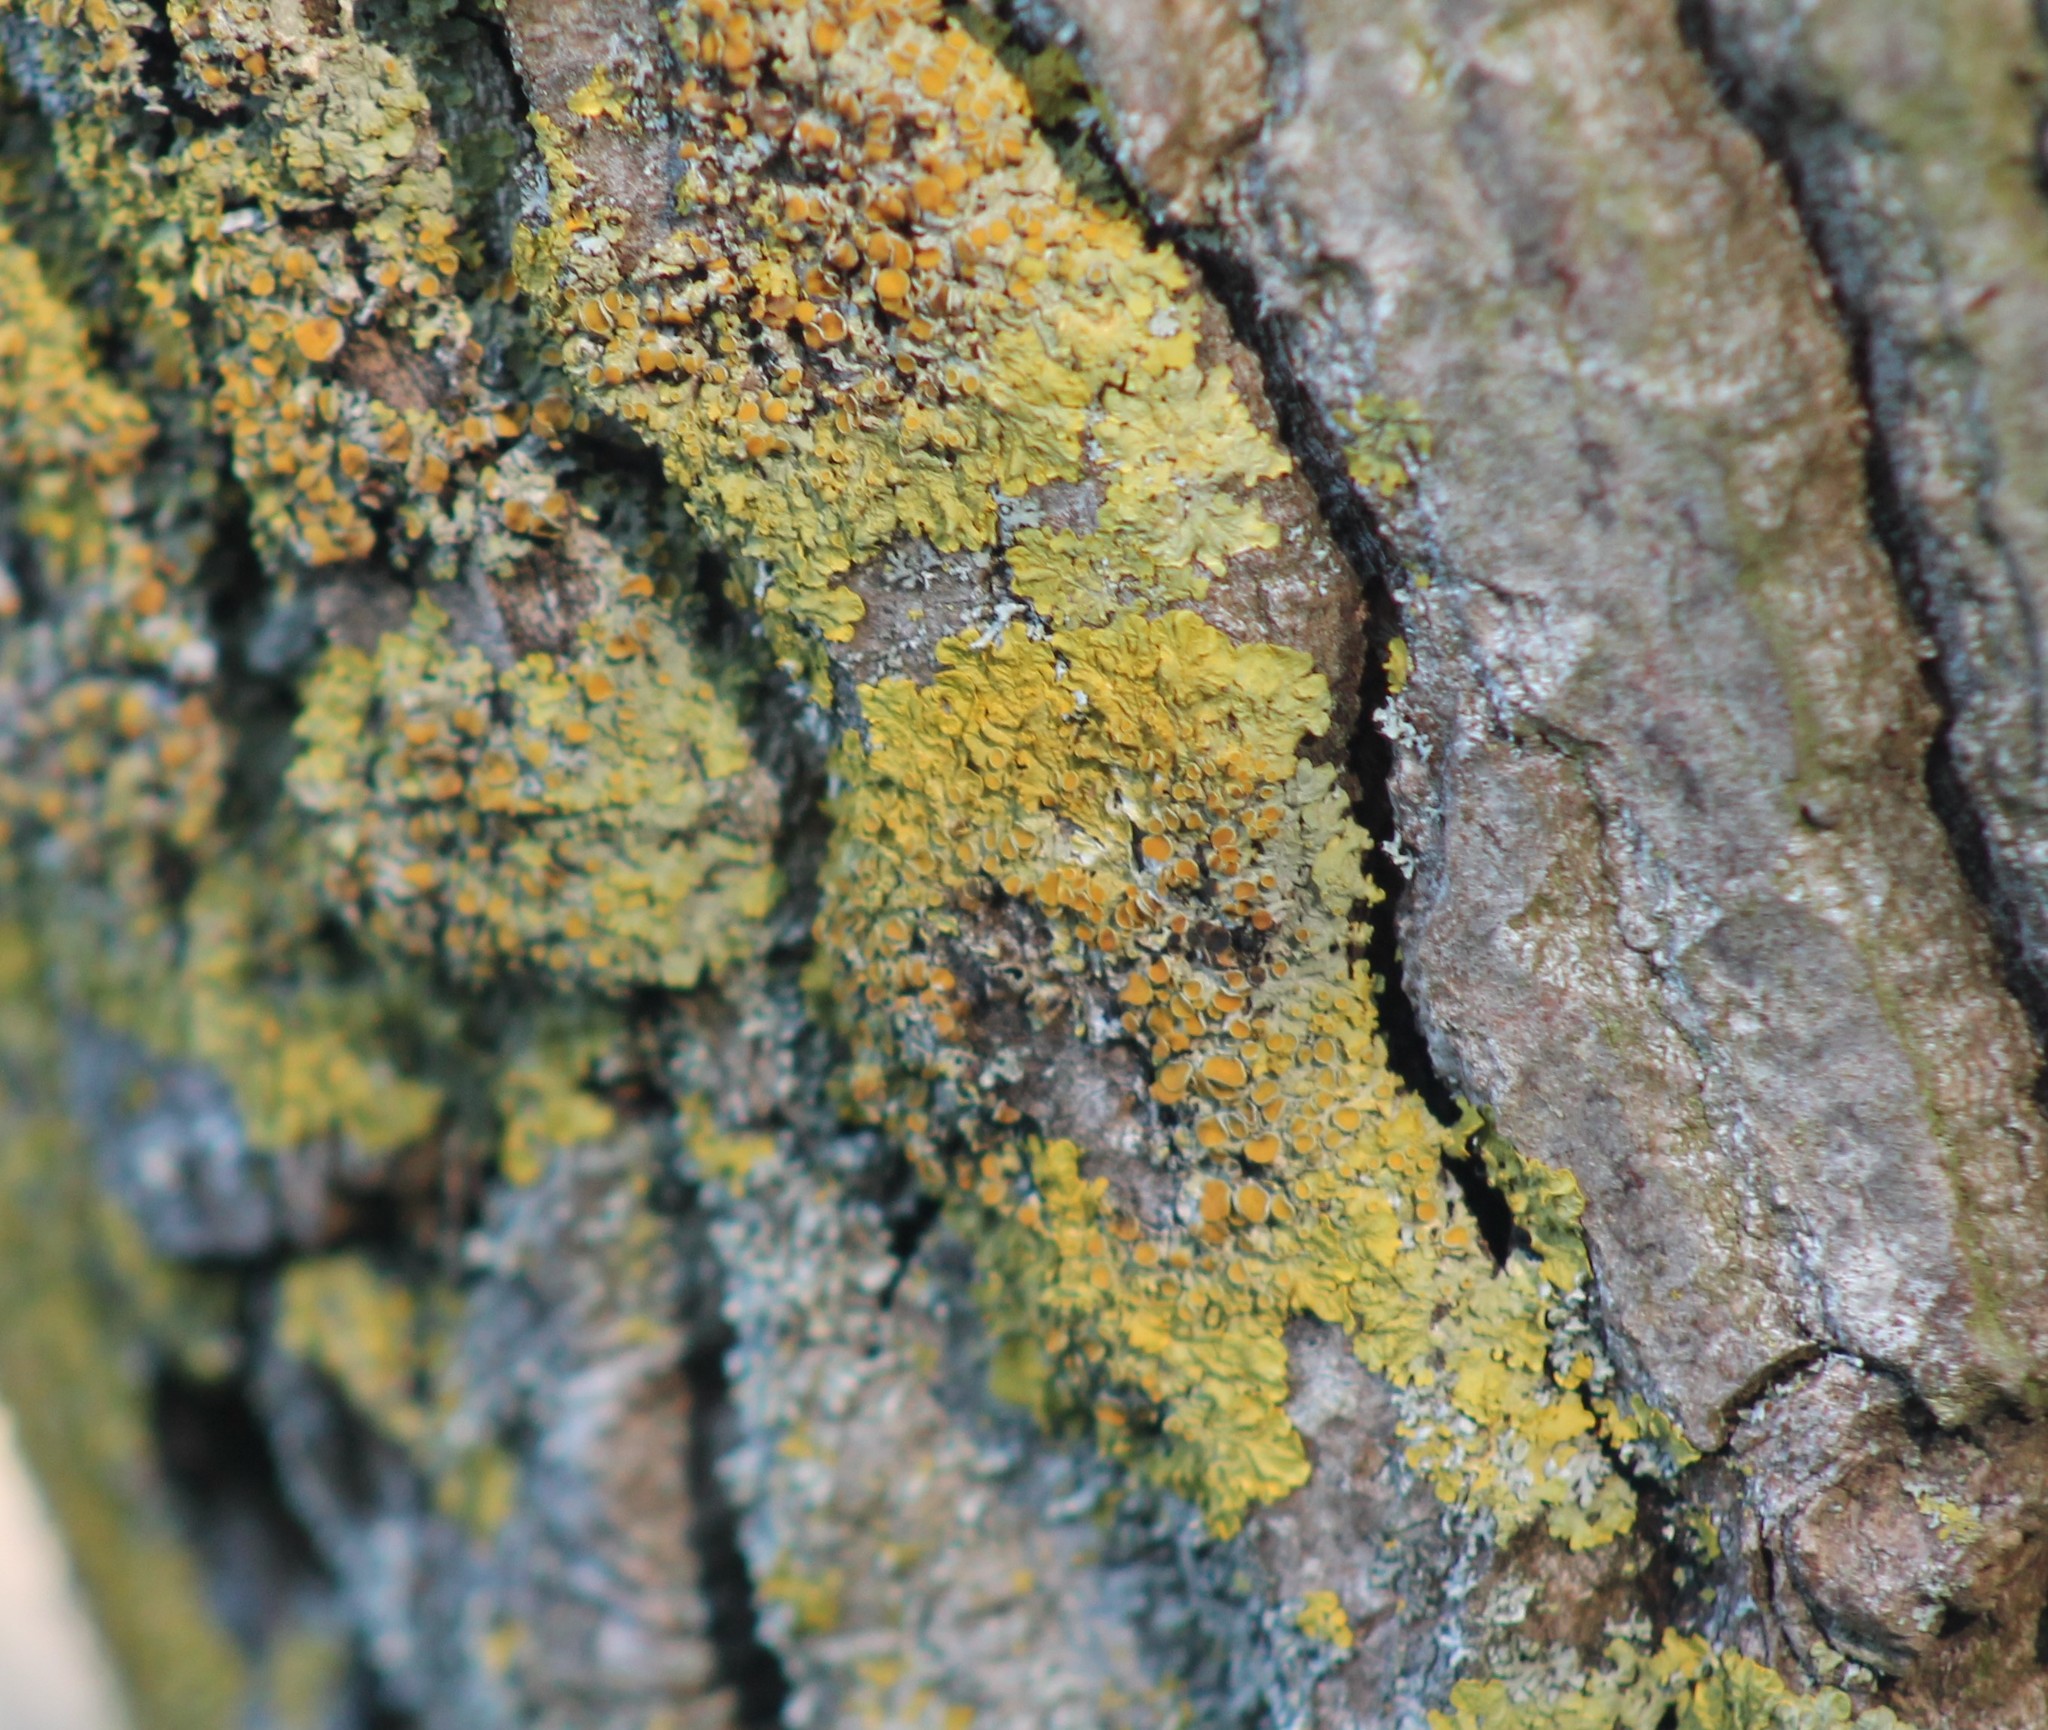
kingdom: Fungi
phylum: Ascomycota
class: Lecanoromycetes
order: Teloschistales
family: Teloschistaceae
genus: Xanthoria
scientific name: Xanthoria parietina
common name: Common orange lichen
